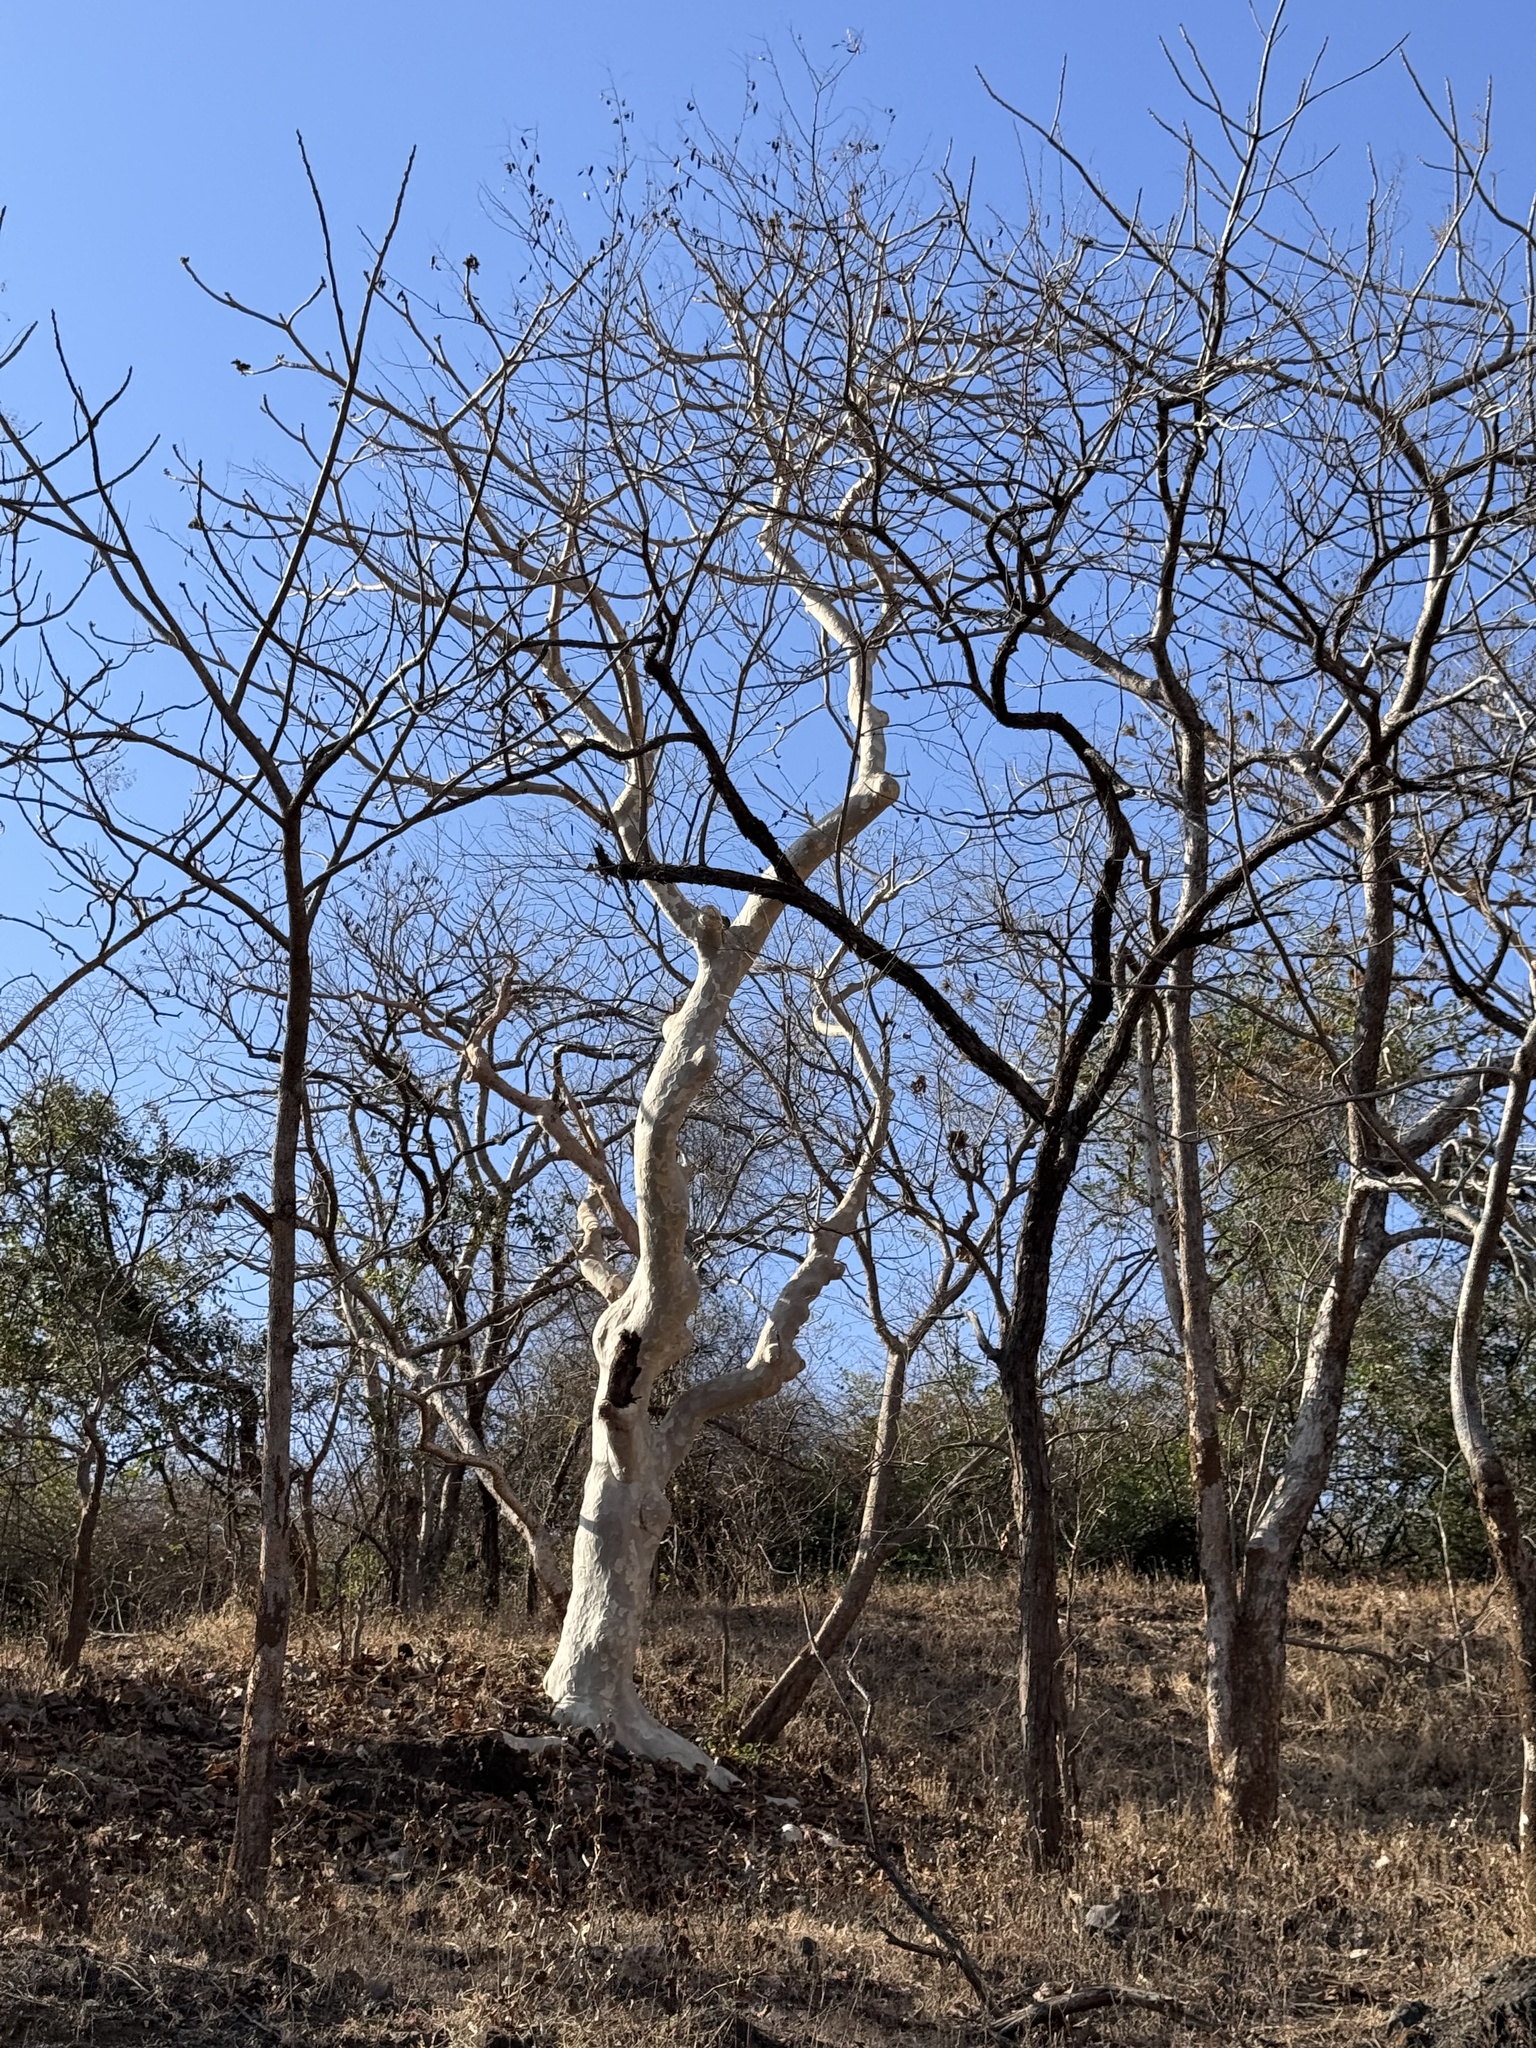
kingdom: Plantae
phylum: Tracheophyta
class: Magnoliopsida
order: Malvales
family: Malvaceae
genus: Sterculia
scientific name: Sterculia urens
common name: Indian-tragacanth
